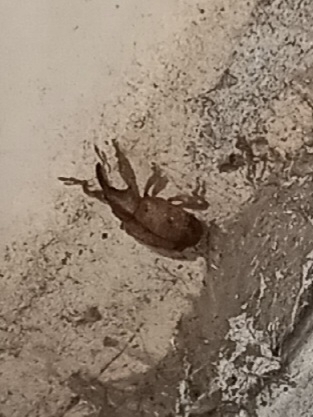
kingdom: Animalia
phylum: Arthropoda
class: Insecta
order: Coleoptera
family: Curculionidae
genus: Ochyromera
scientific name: Ochyromera ligustri
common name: Weevil
